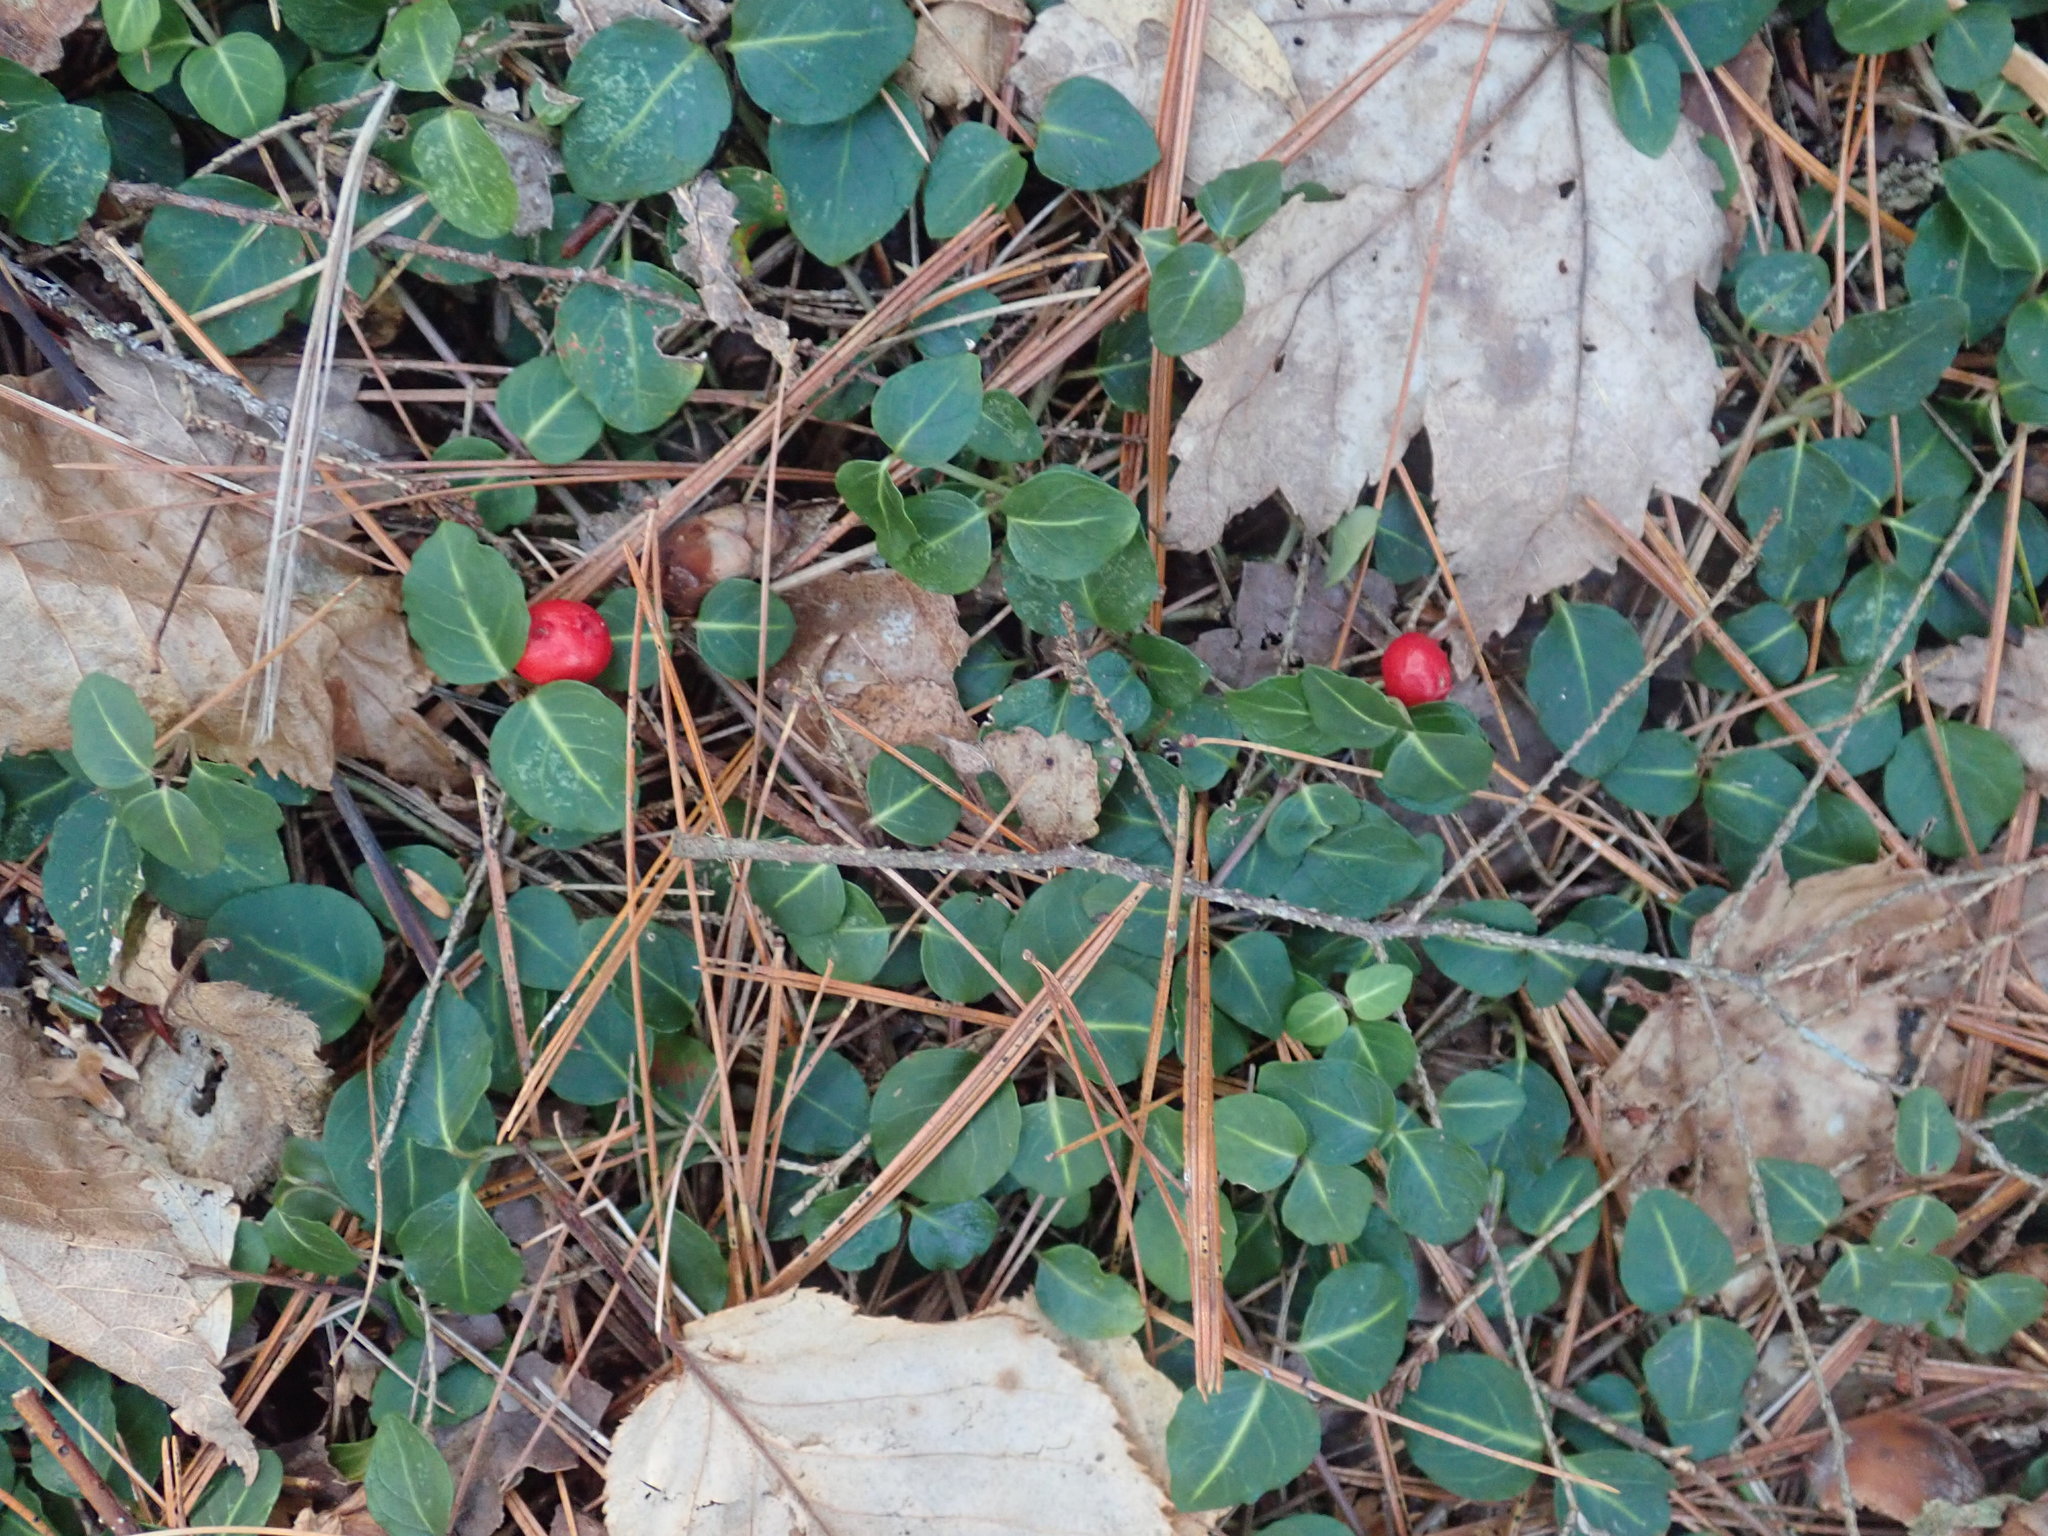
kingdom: Plantae
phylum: Tracheophyta
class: Magnoliopsida
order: Gentianales
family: Rubiaceae
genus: Mitchella
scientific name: Mitchella repens
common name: Partridge-berry
